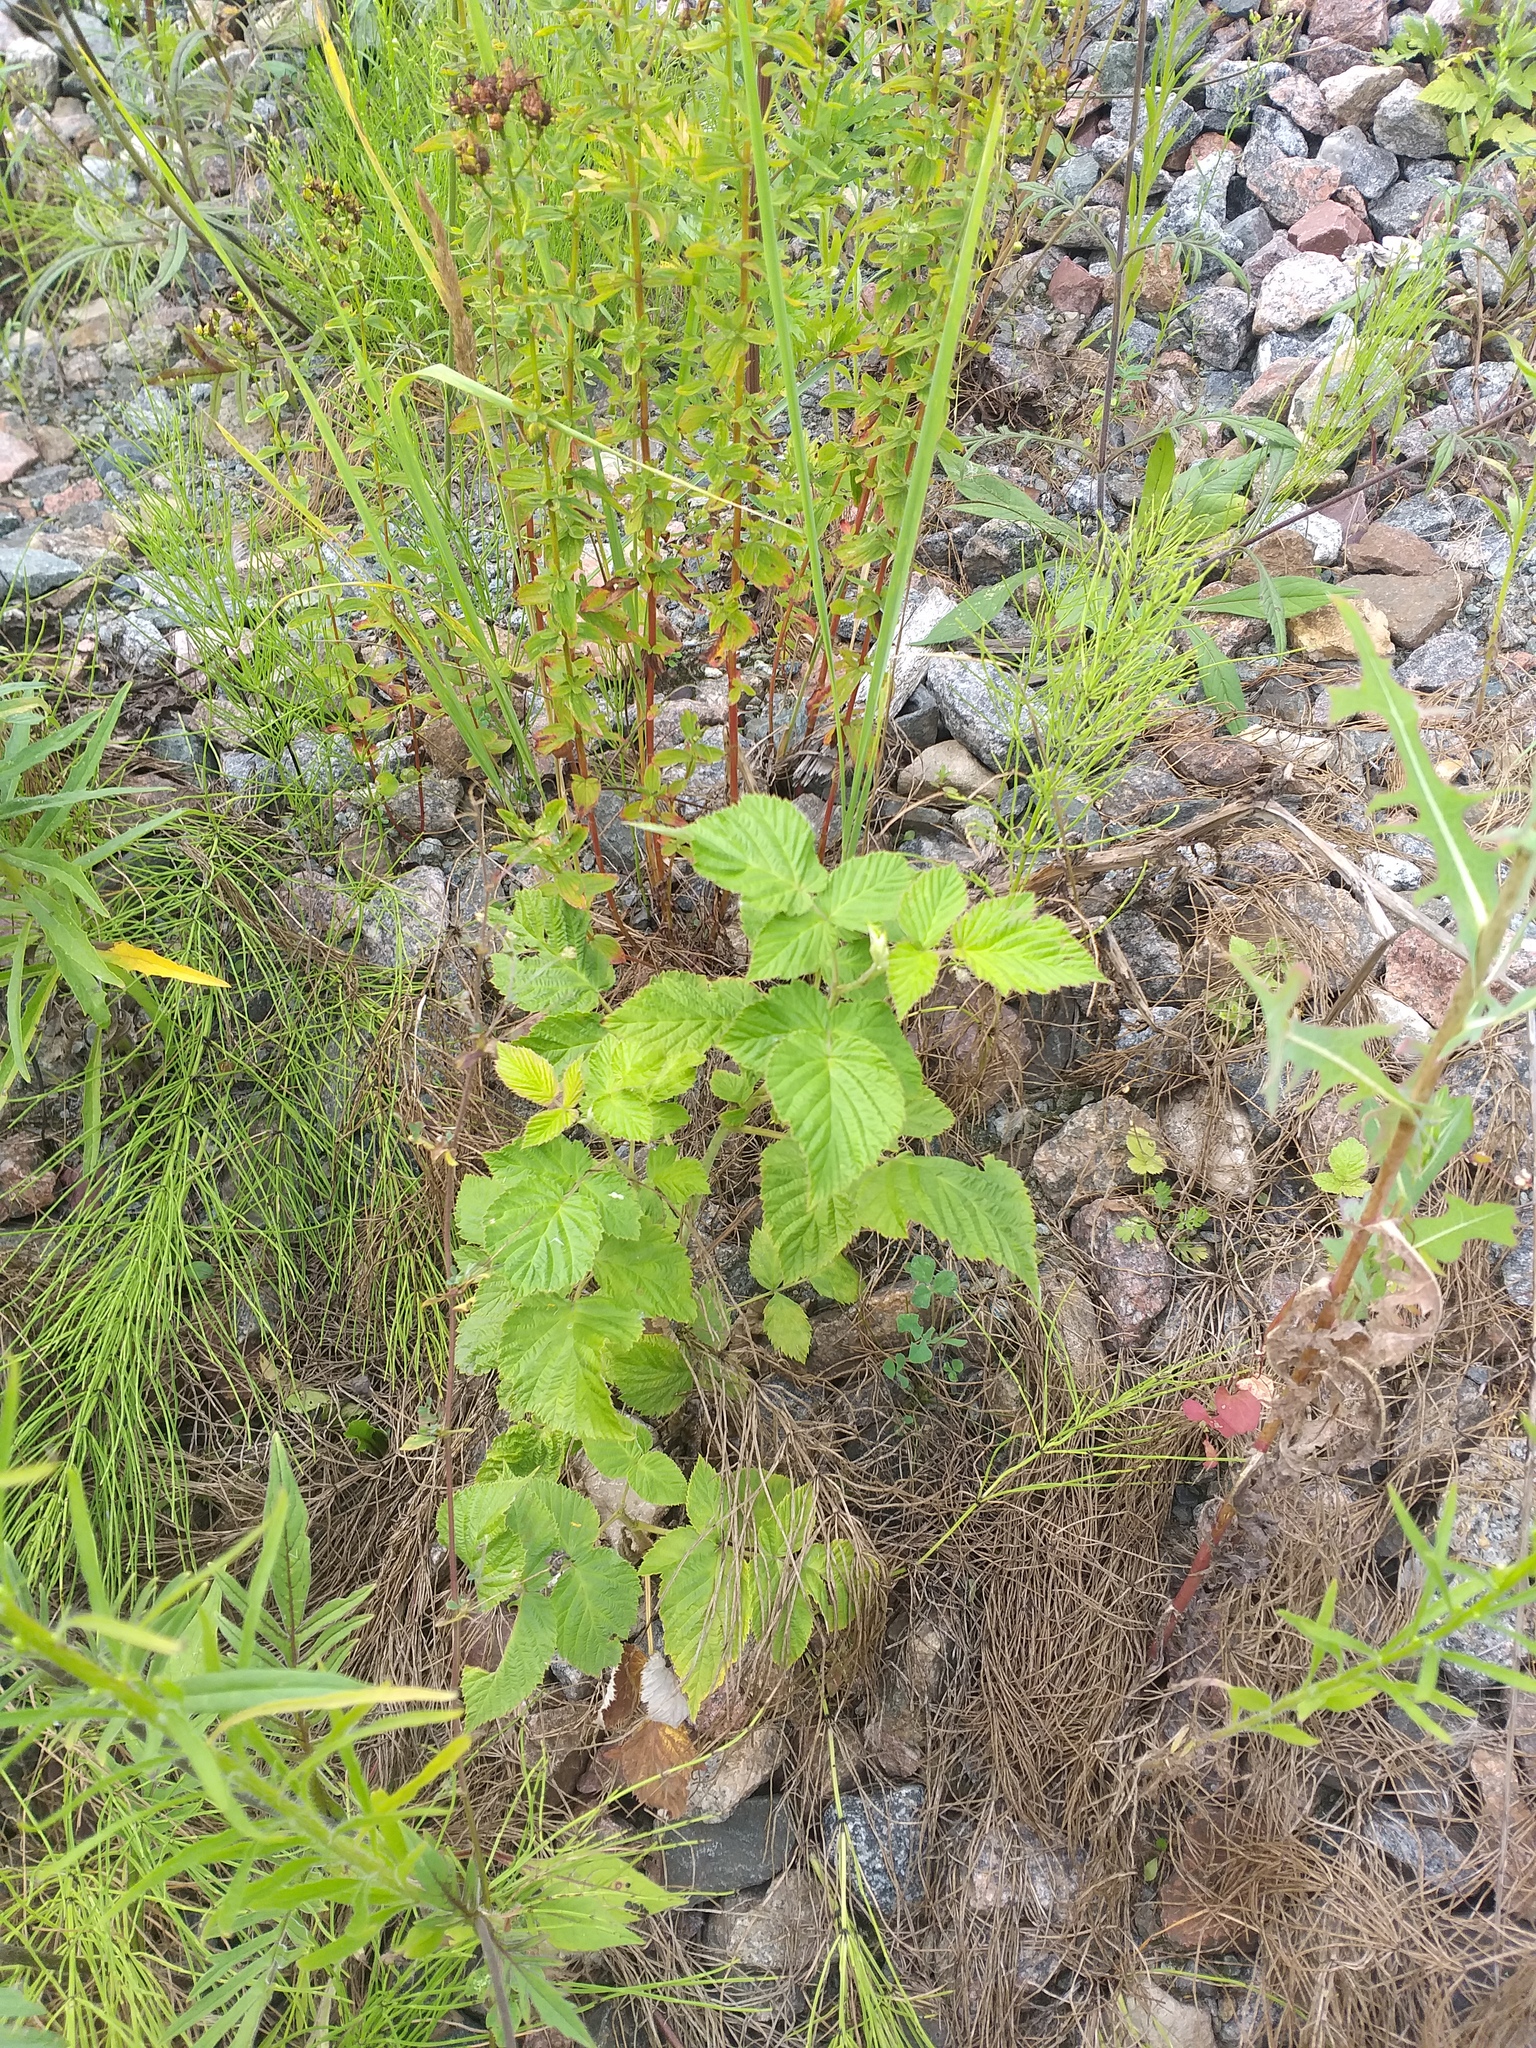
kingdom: Plantae
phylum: Tracheophyta
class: Magnoliopsida
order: Rosales
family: Rosaceae
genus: Rubus
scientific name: Rubus idaeus
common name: Raspberry
